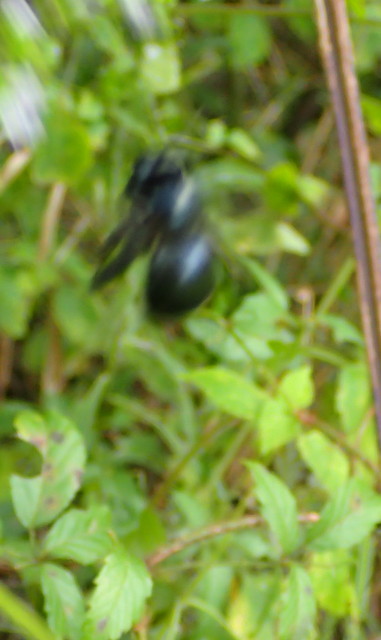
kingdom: Animalia
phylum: Arthropoda
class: Insecta
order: Hymenoptera
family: Apidae
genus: Xylocopa
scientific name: Xylocopa micans
